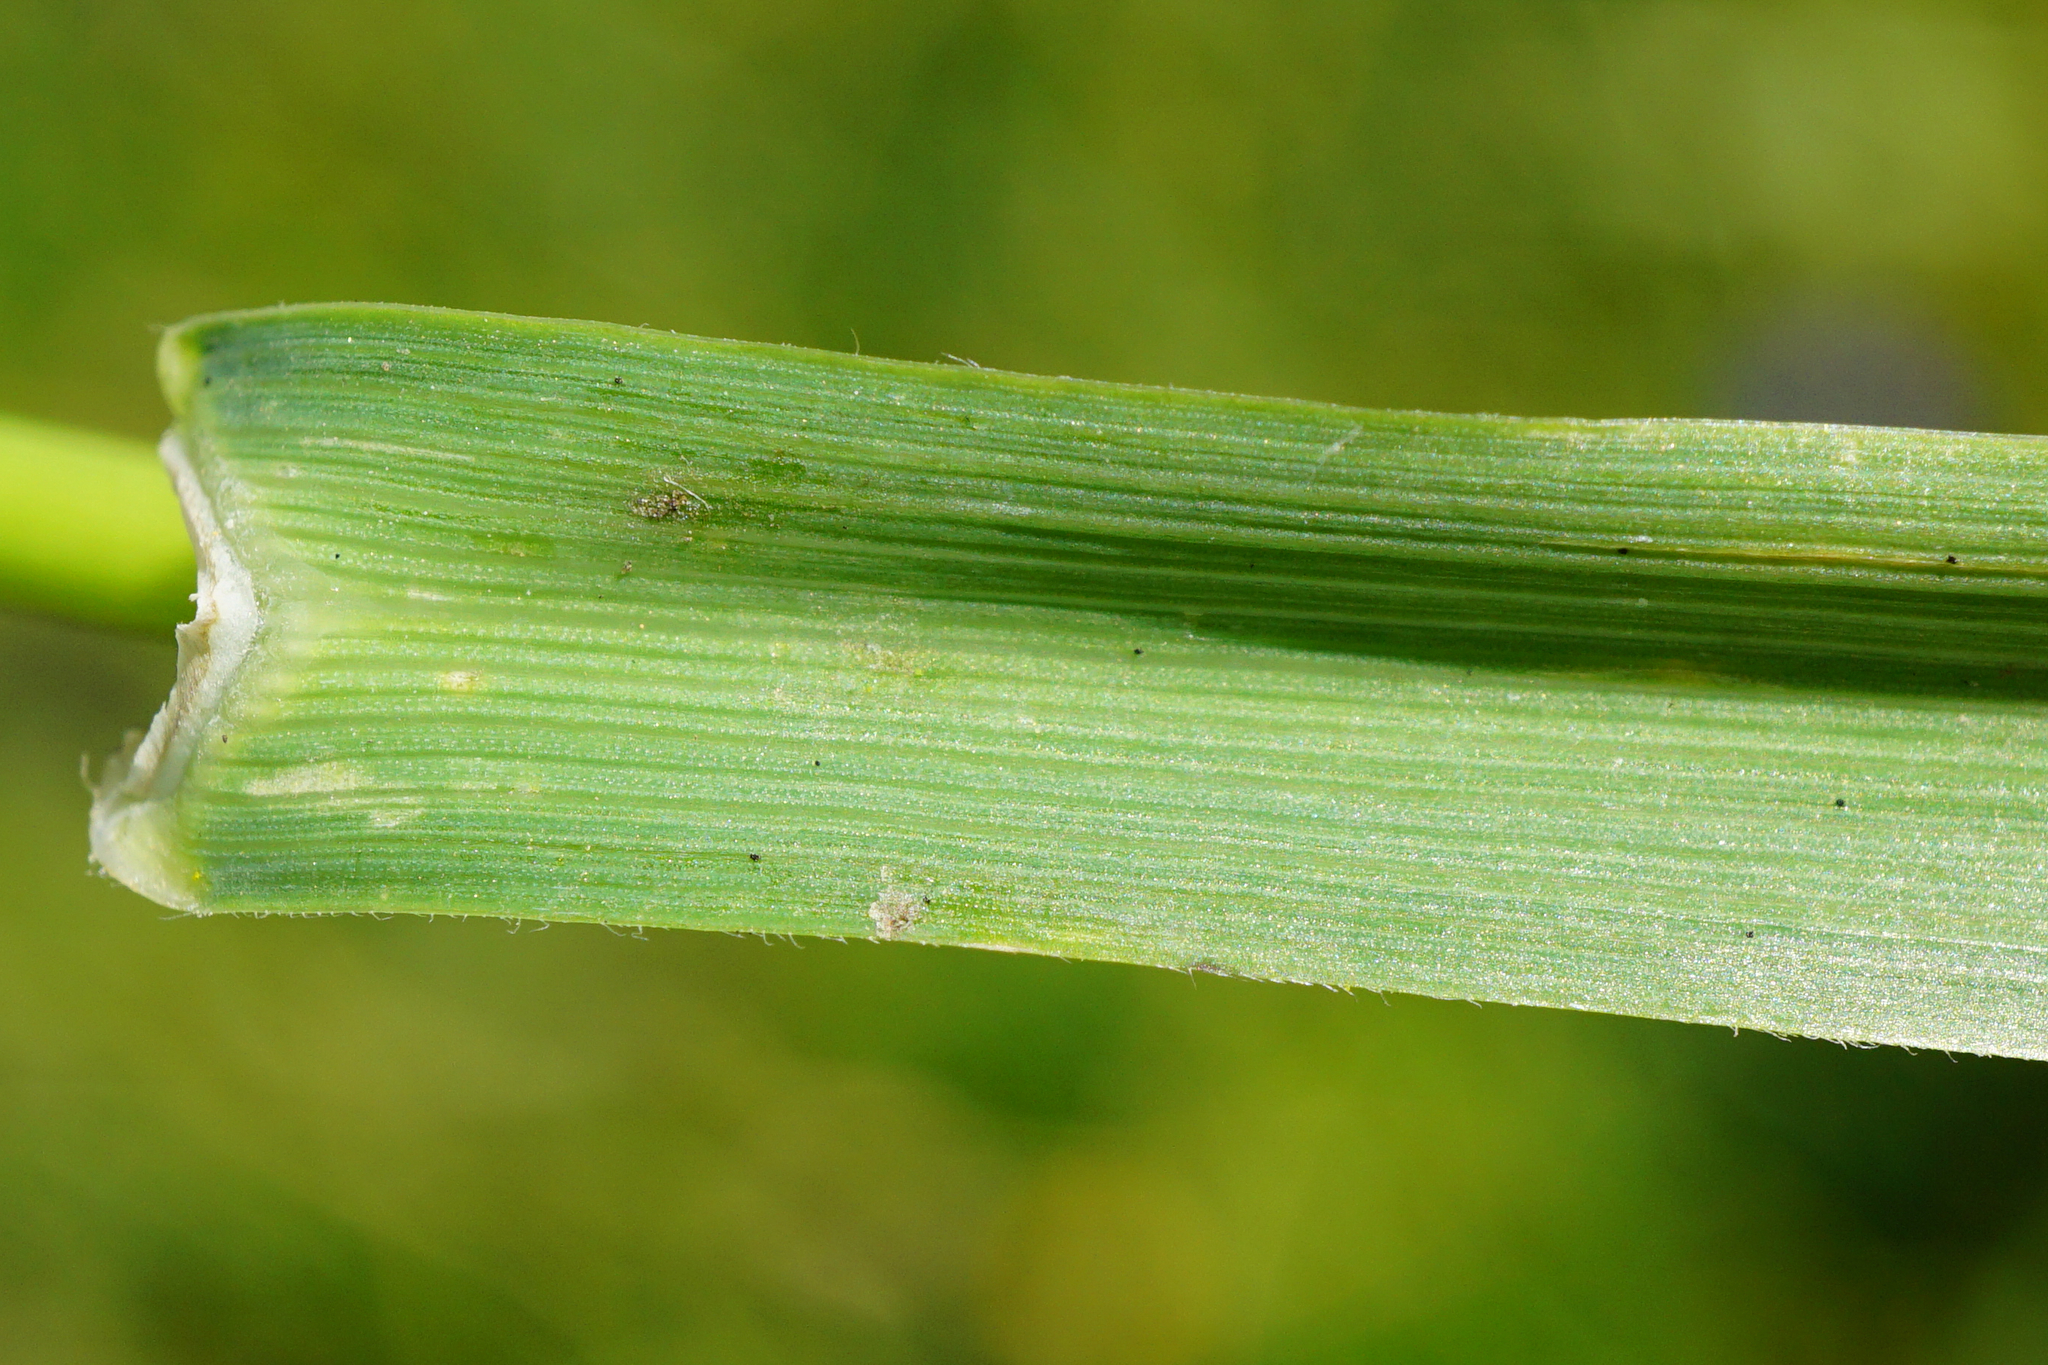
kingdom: Plantae
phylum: Tracheophyta
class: Liliopsida
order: Poales
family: Poaceae
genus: Phleum
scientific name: Phleum alpinum
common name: Alpine cat's-tail
